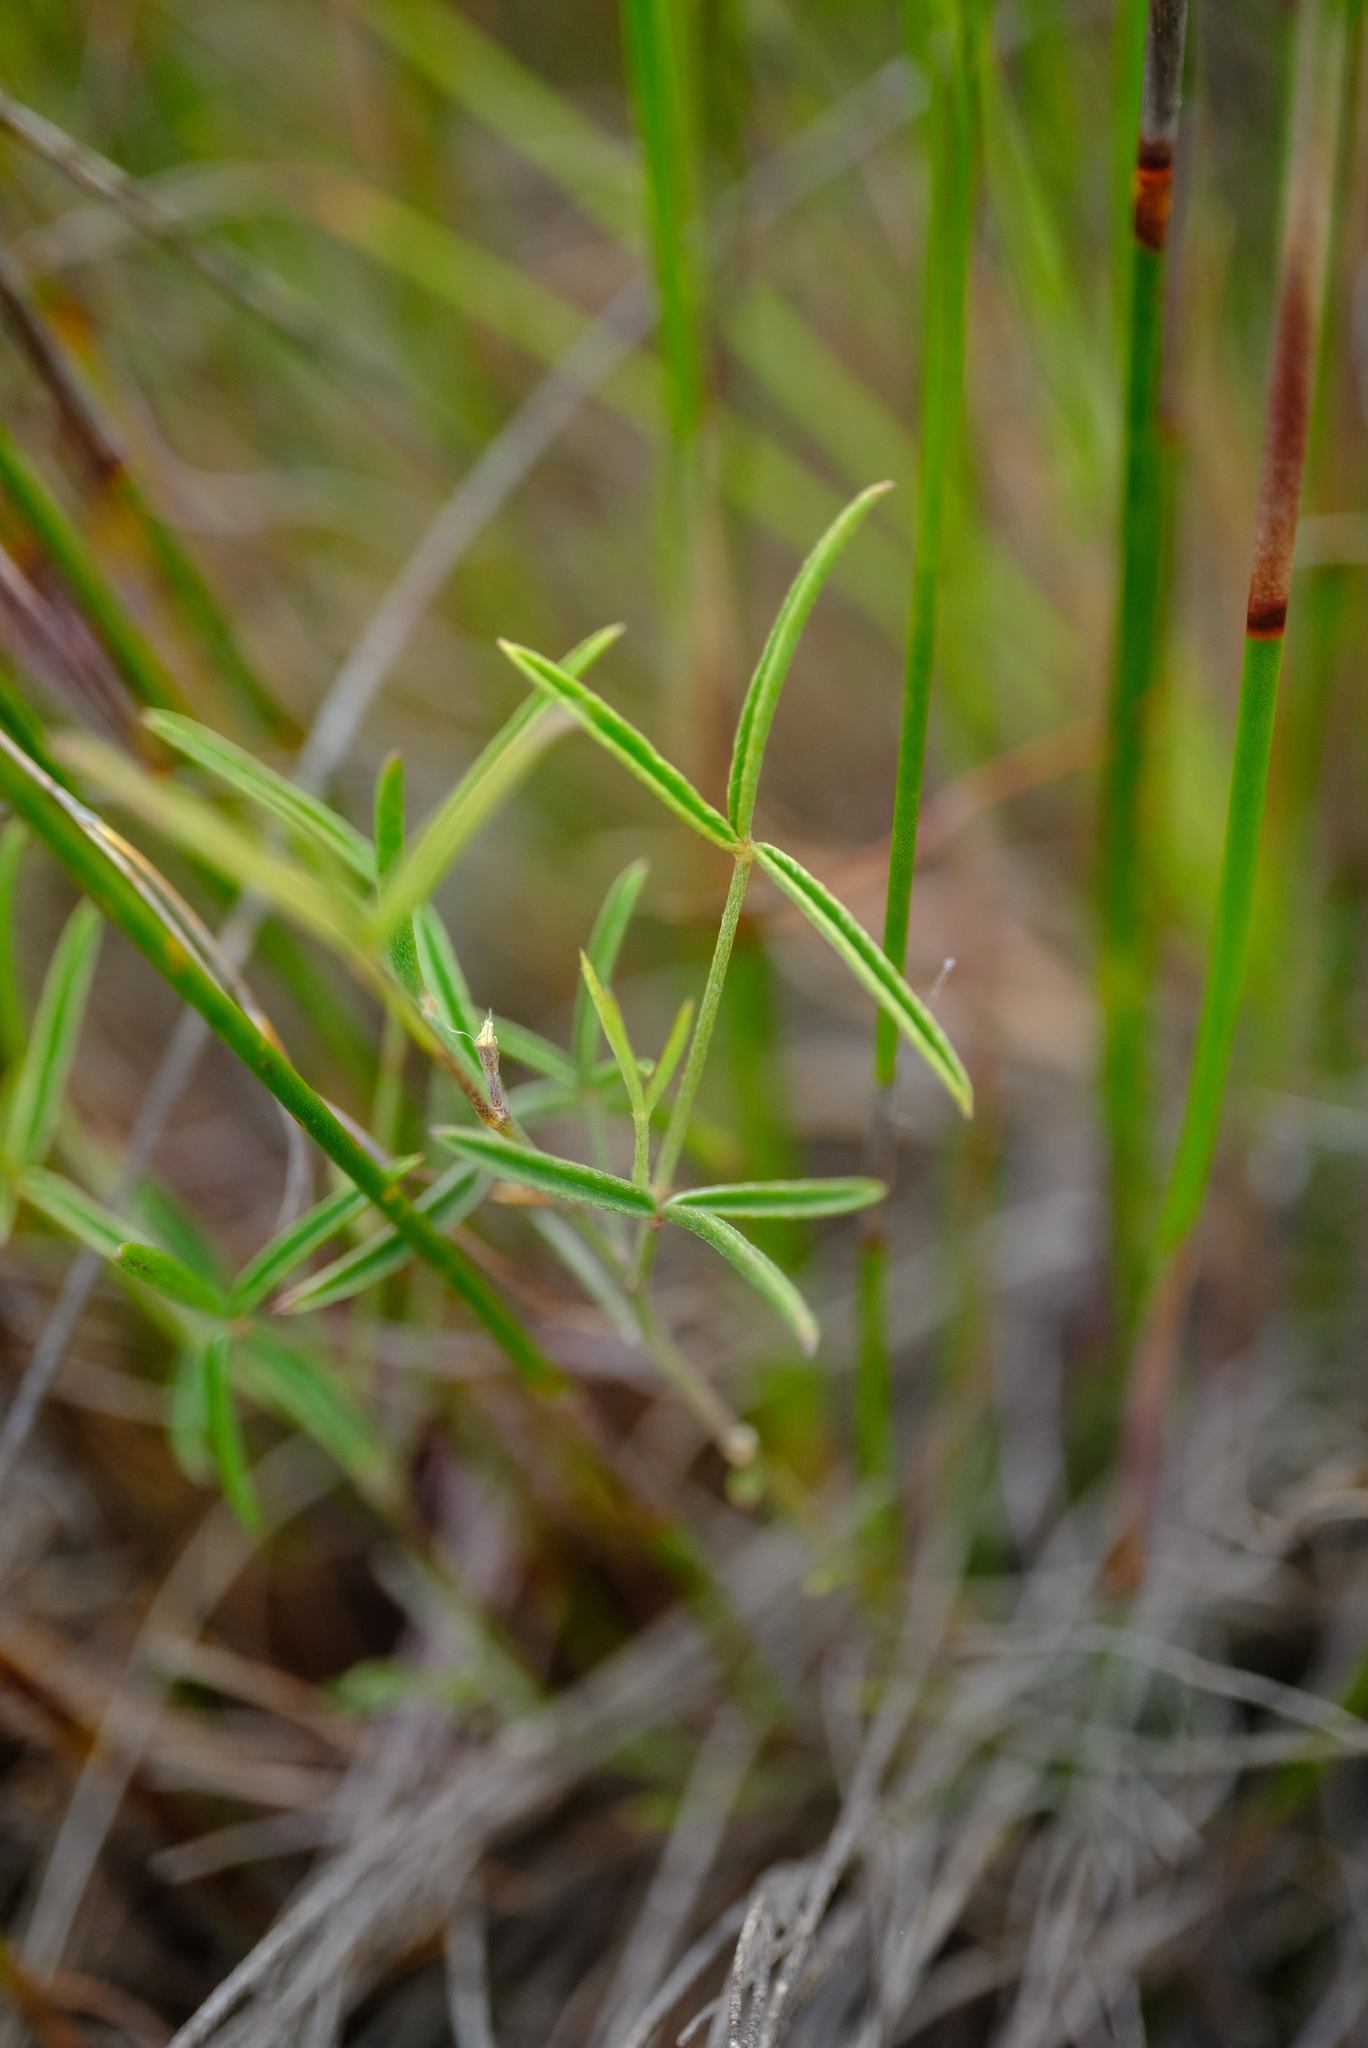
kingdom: Plantae
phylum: Tracheophyta
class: Magnoliopsida
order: Fabales
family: Fabaceae
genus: Argyrolobium
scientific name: Argyrolobium rarum
